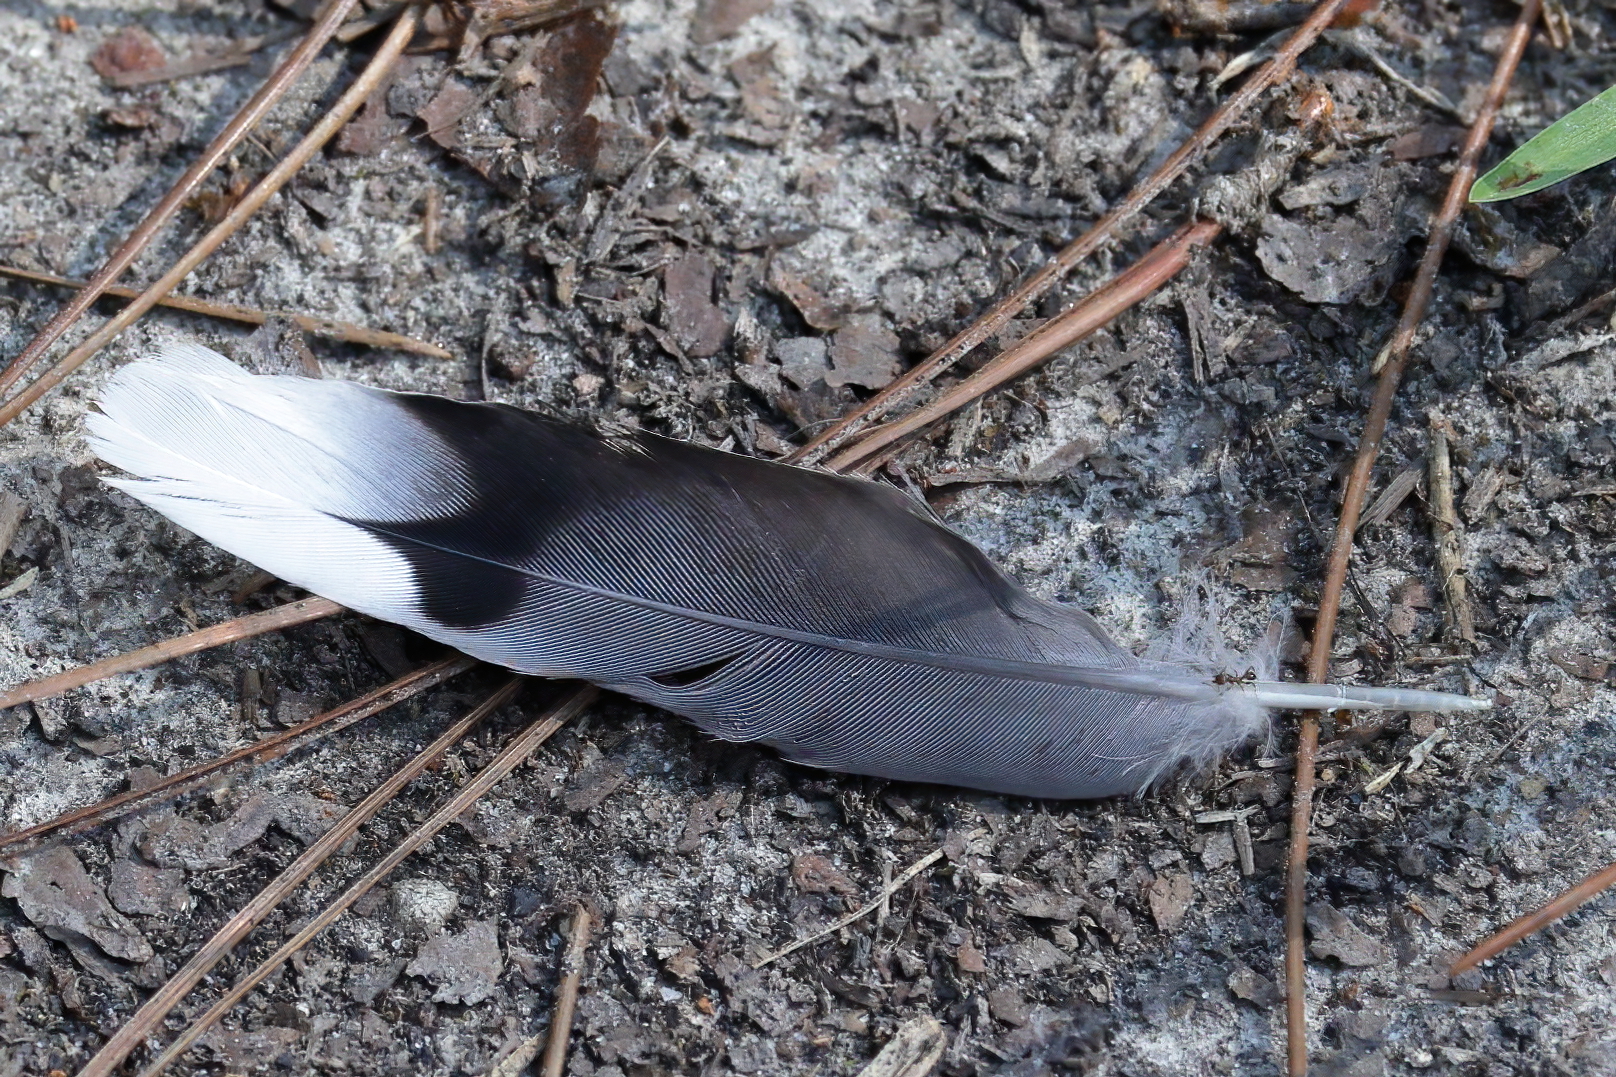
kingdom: Animalia
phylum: Chordata
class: Aves
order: Columbiformes
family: Columbidae
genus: Zenaida
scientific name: Zenaida macroura
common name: Mourning dove
